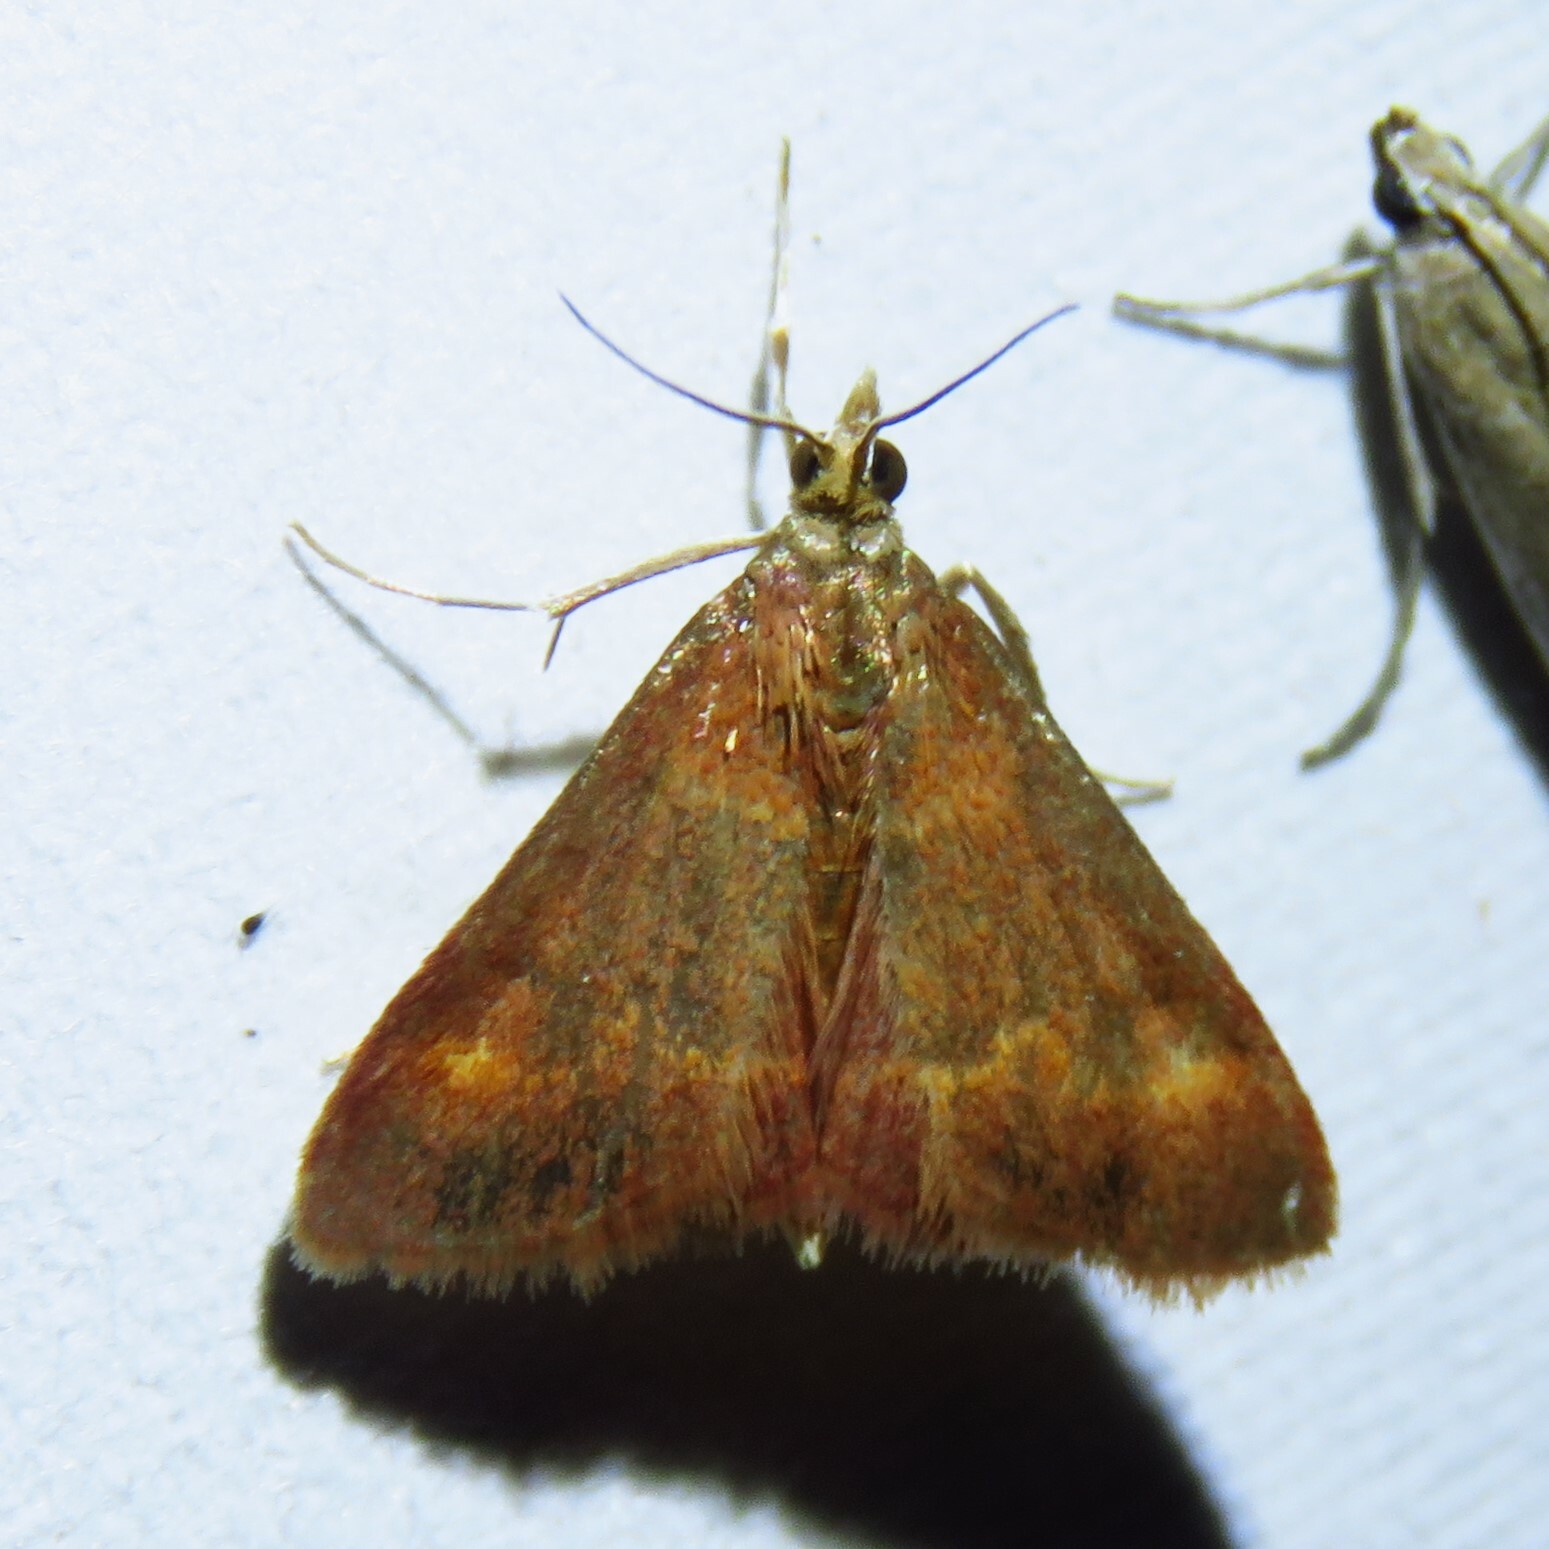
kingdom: Animalia
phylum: Arthropoda
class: Insecta
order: Lepidoptera
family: Crambidae
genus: Pyrausta
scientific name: Pyrausta pseuderosnealis
